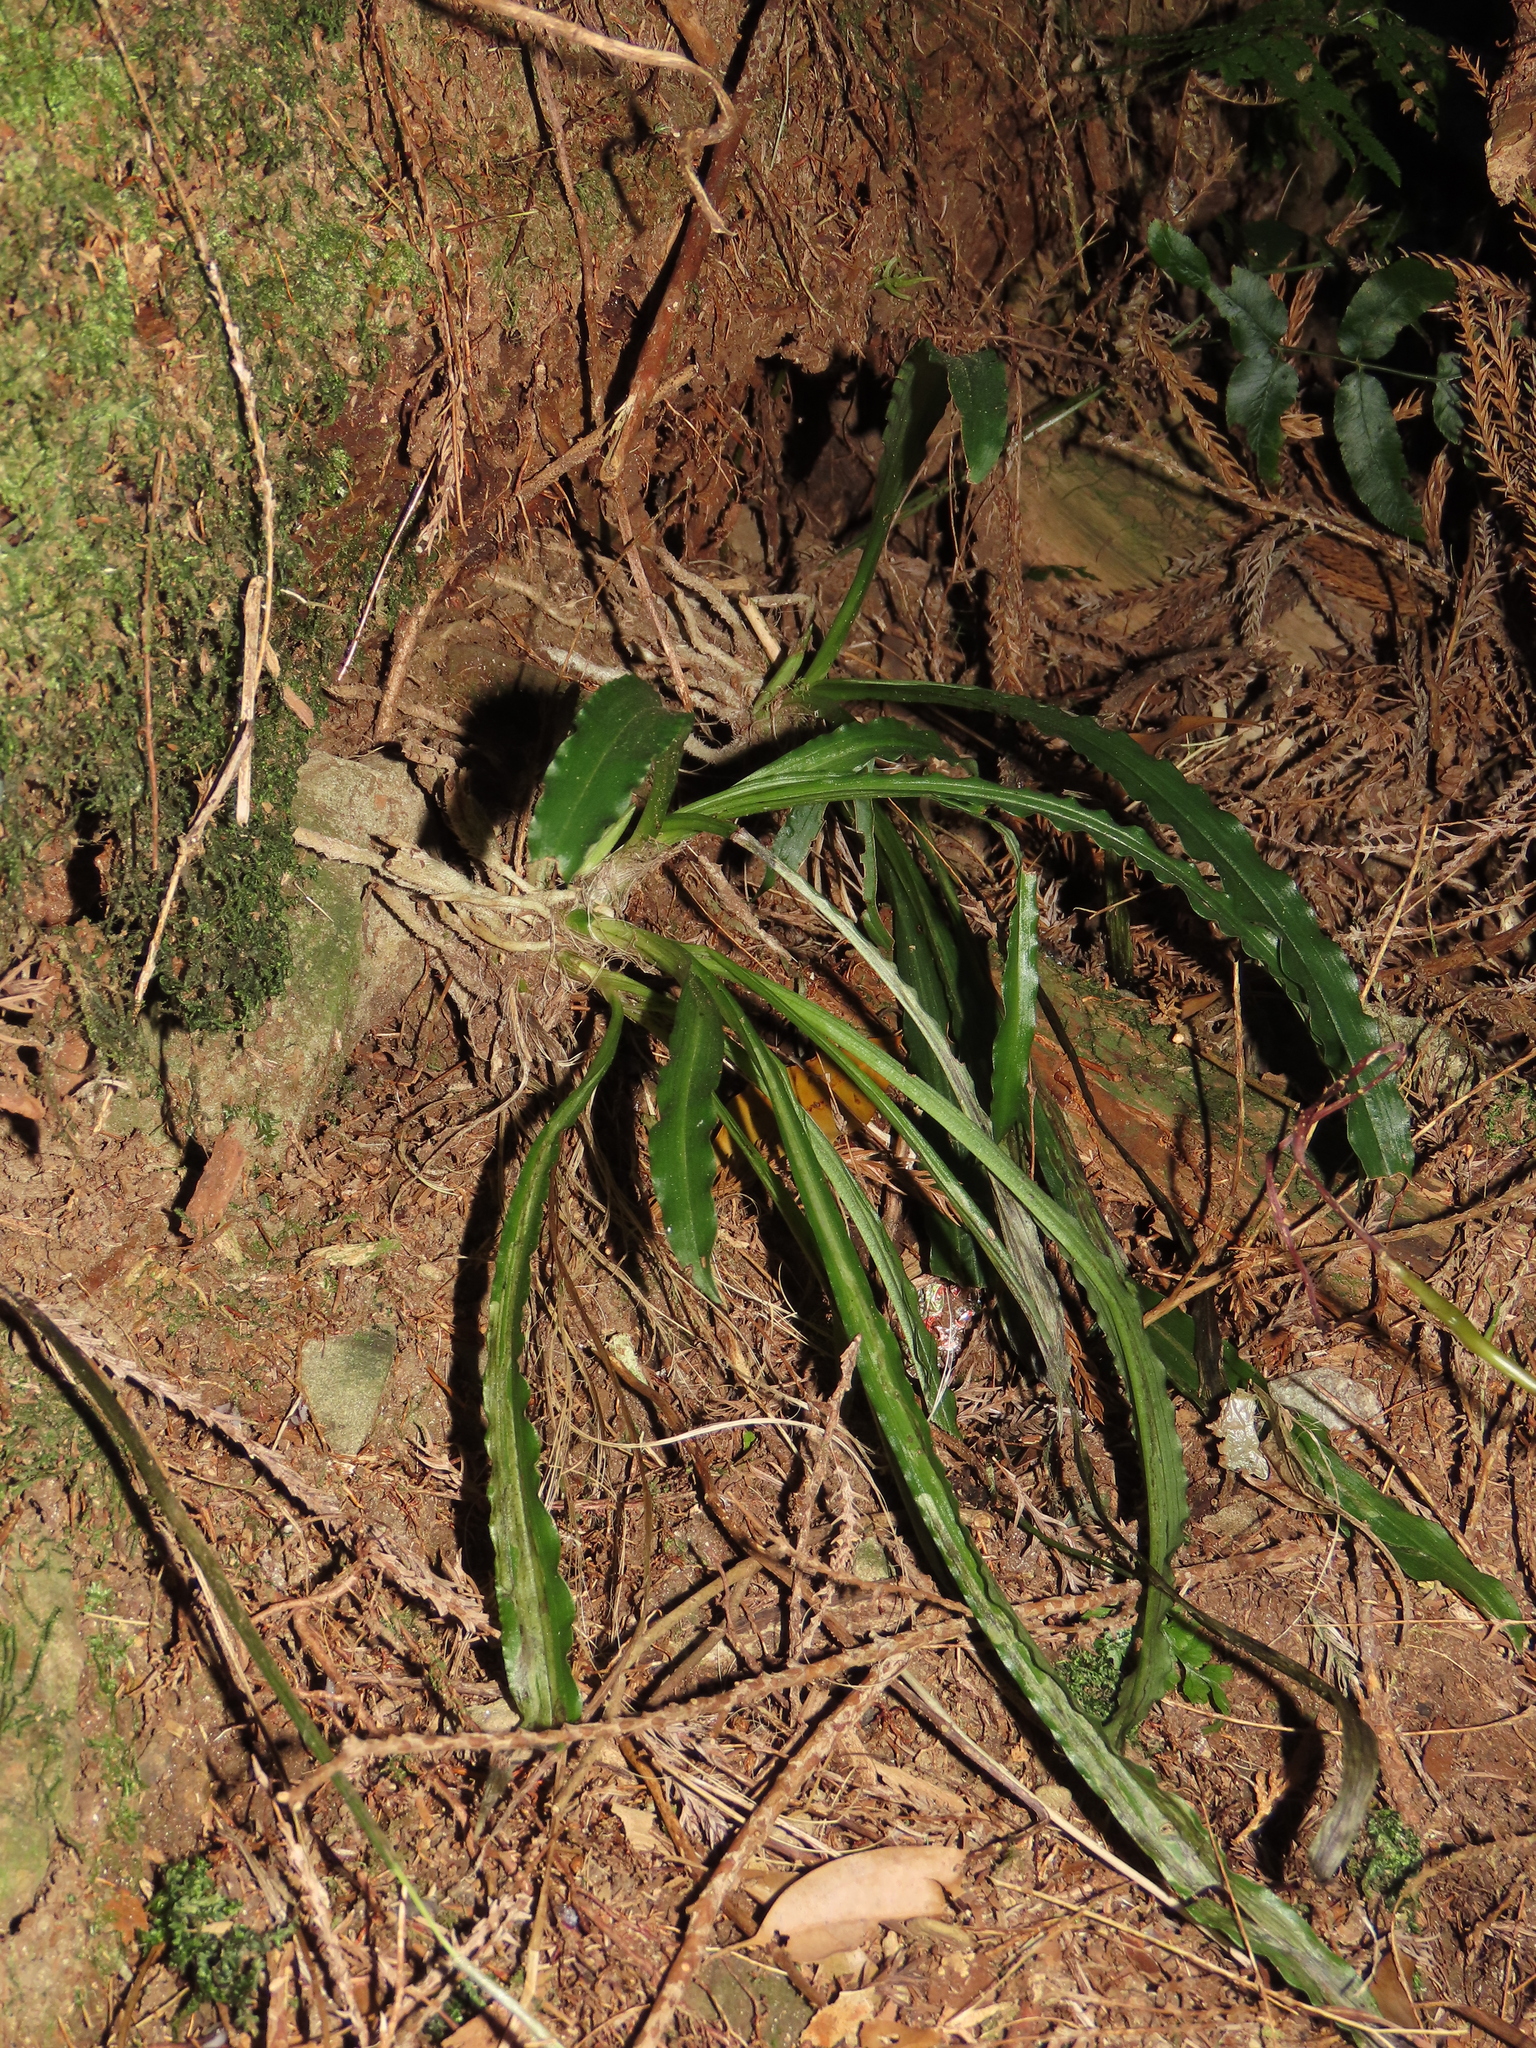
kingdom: Plantae
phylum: Tracheophyta
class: Liliopsida
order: Asparagales
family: Orchidaceae
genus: Calanthe
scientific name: Calanthe arcuata
